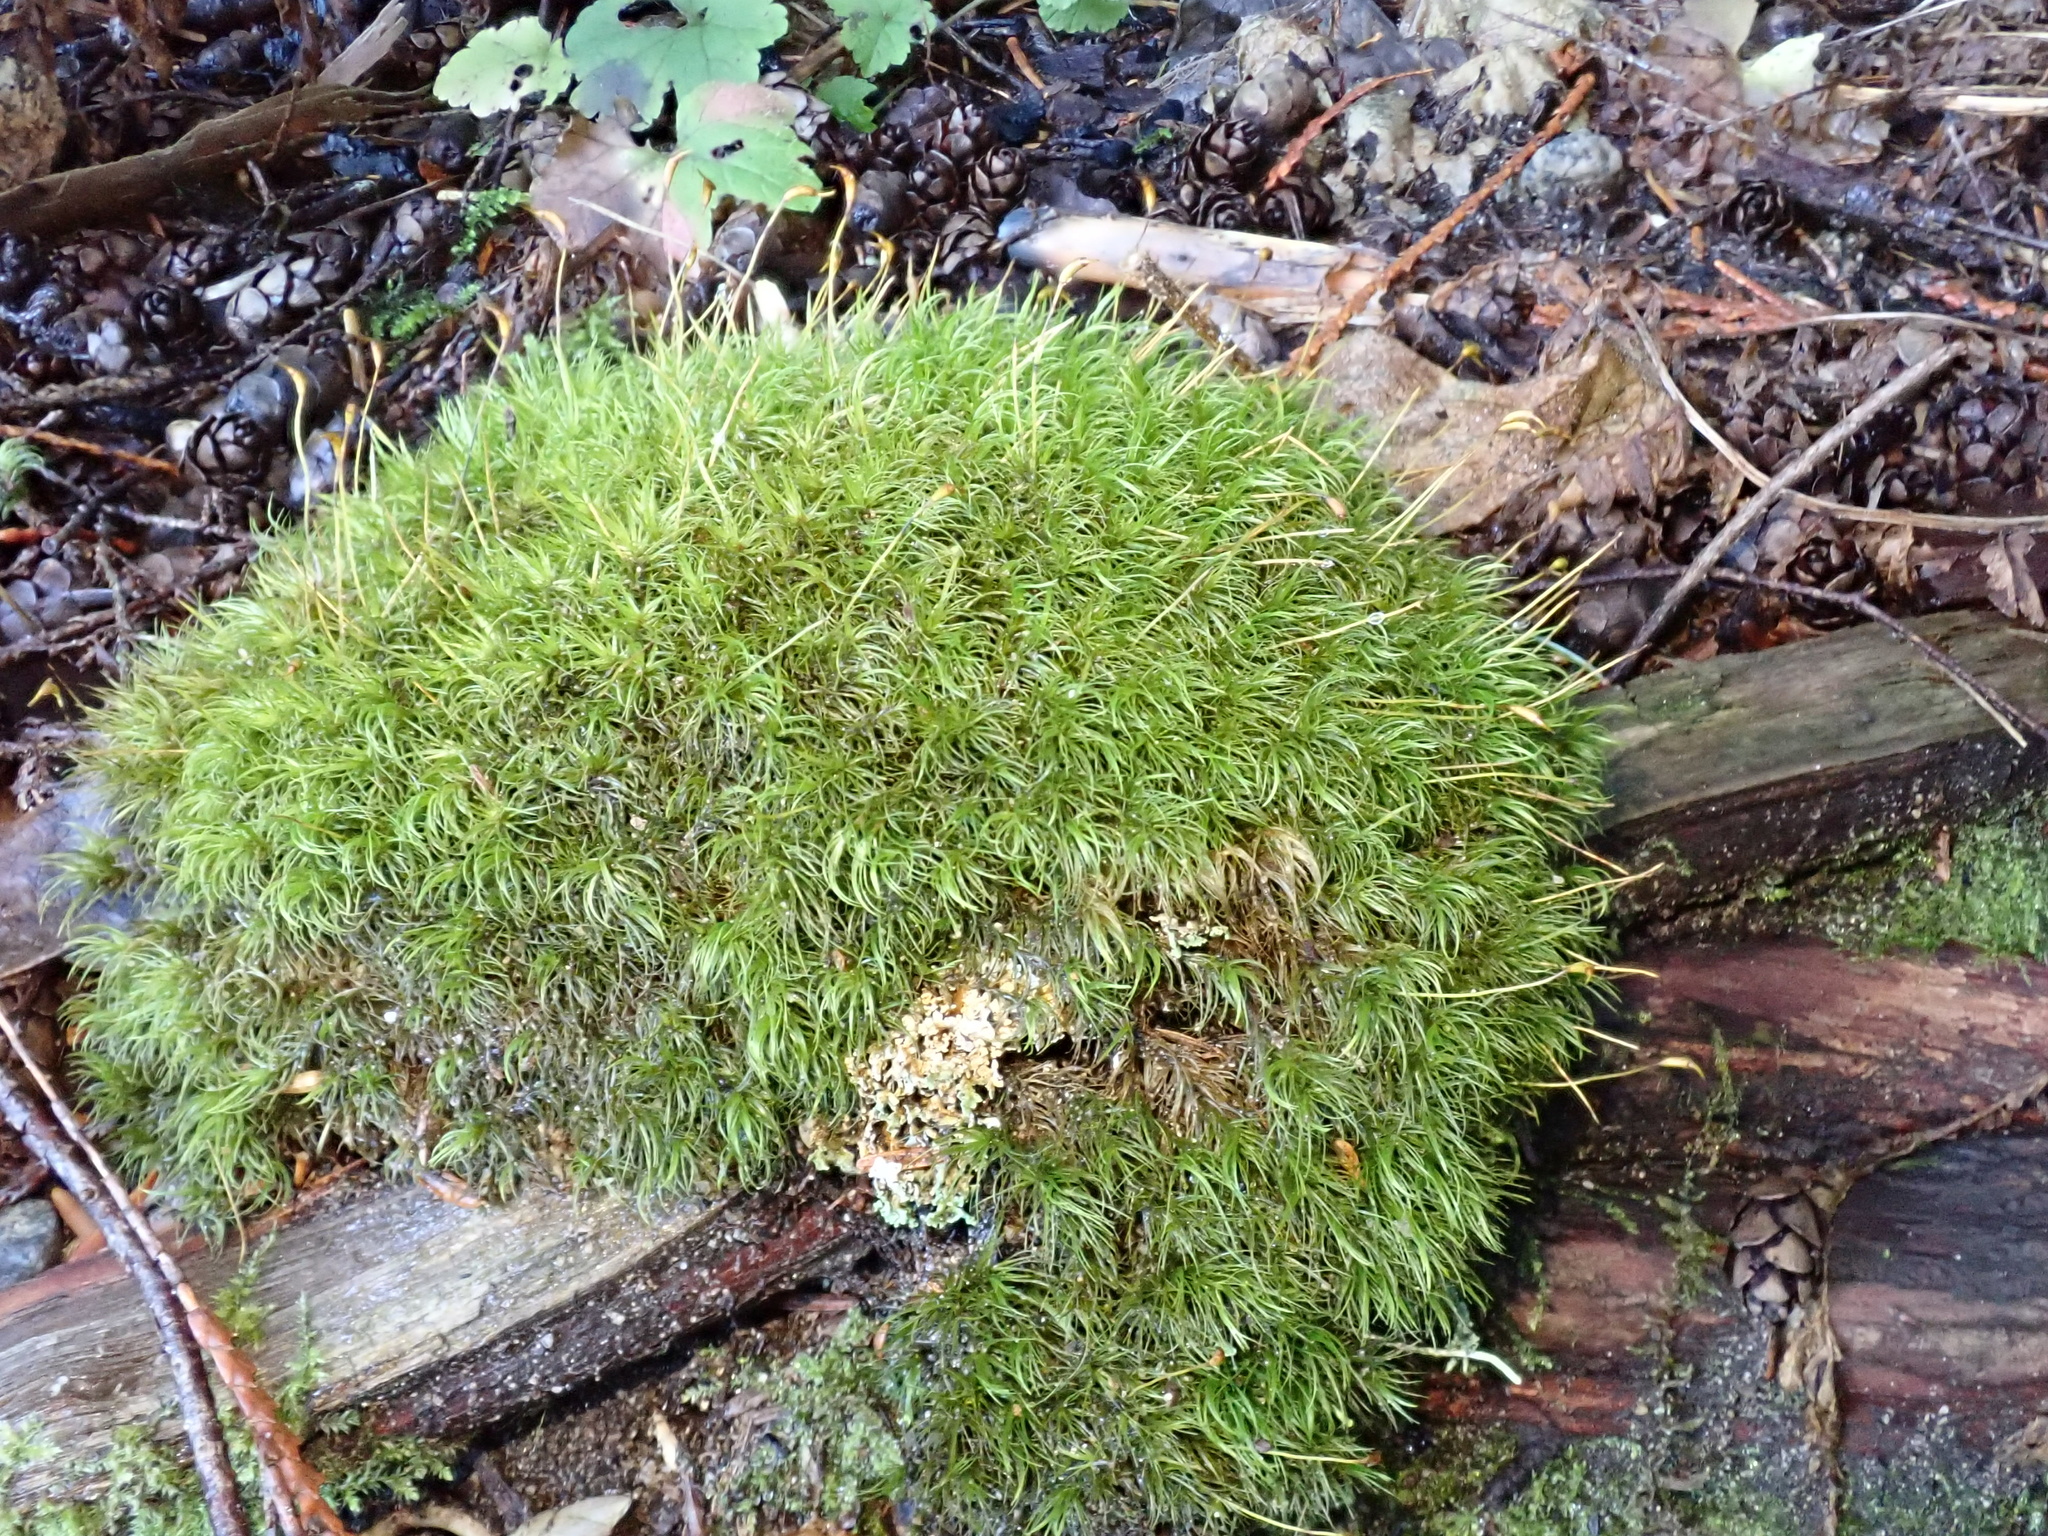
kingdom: Plantae
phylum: Bryophyta
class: Bryopsida
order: Dicranales
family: Dicranaceae
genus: Dicranum
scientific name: Dicranum scoparium
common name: Broom fork-moss
